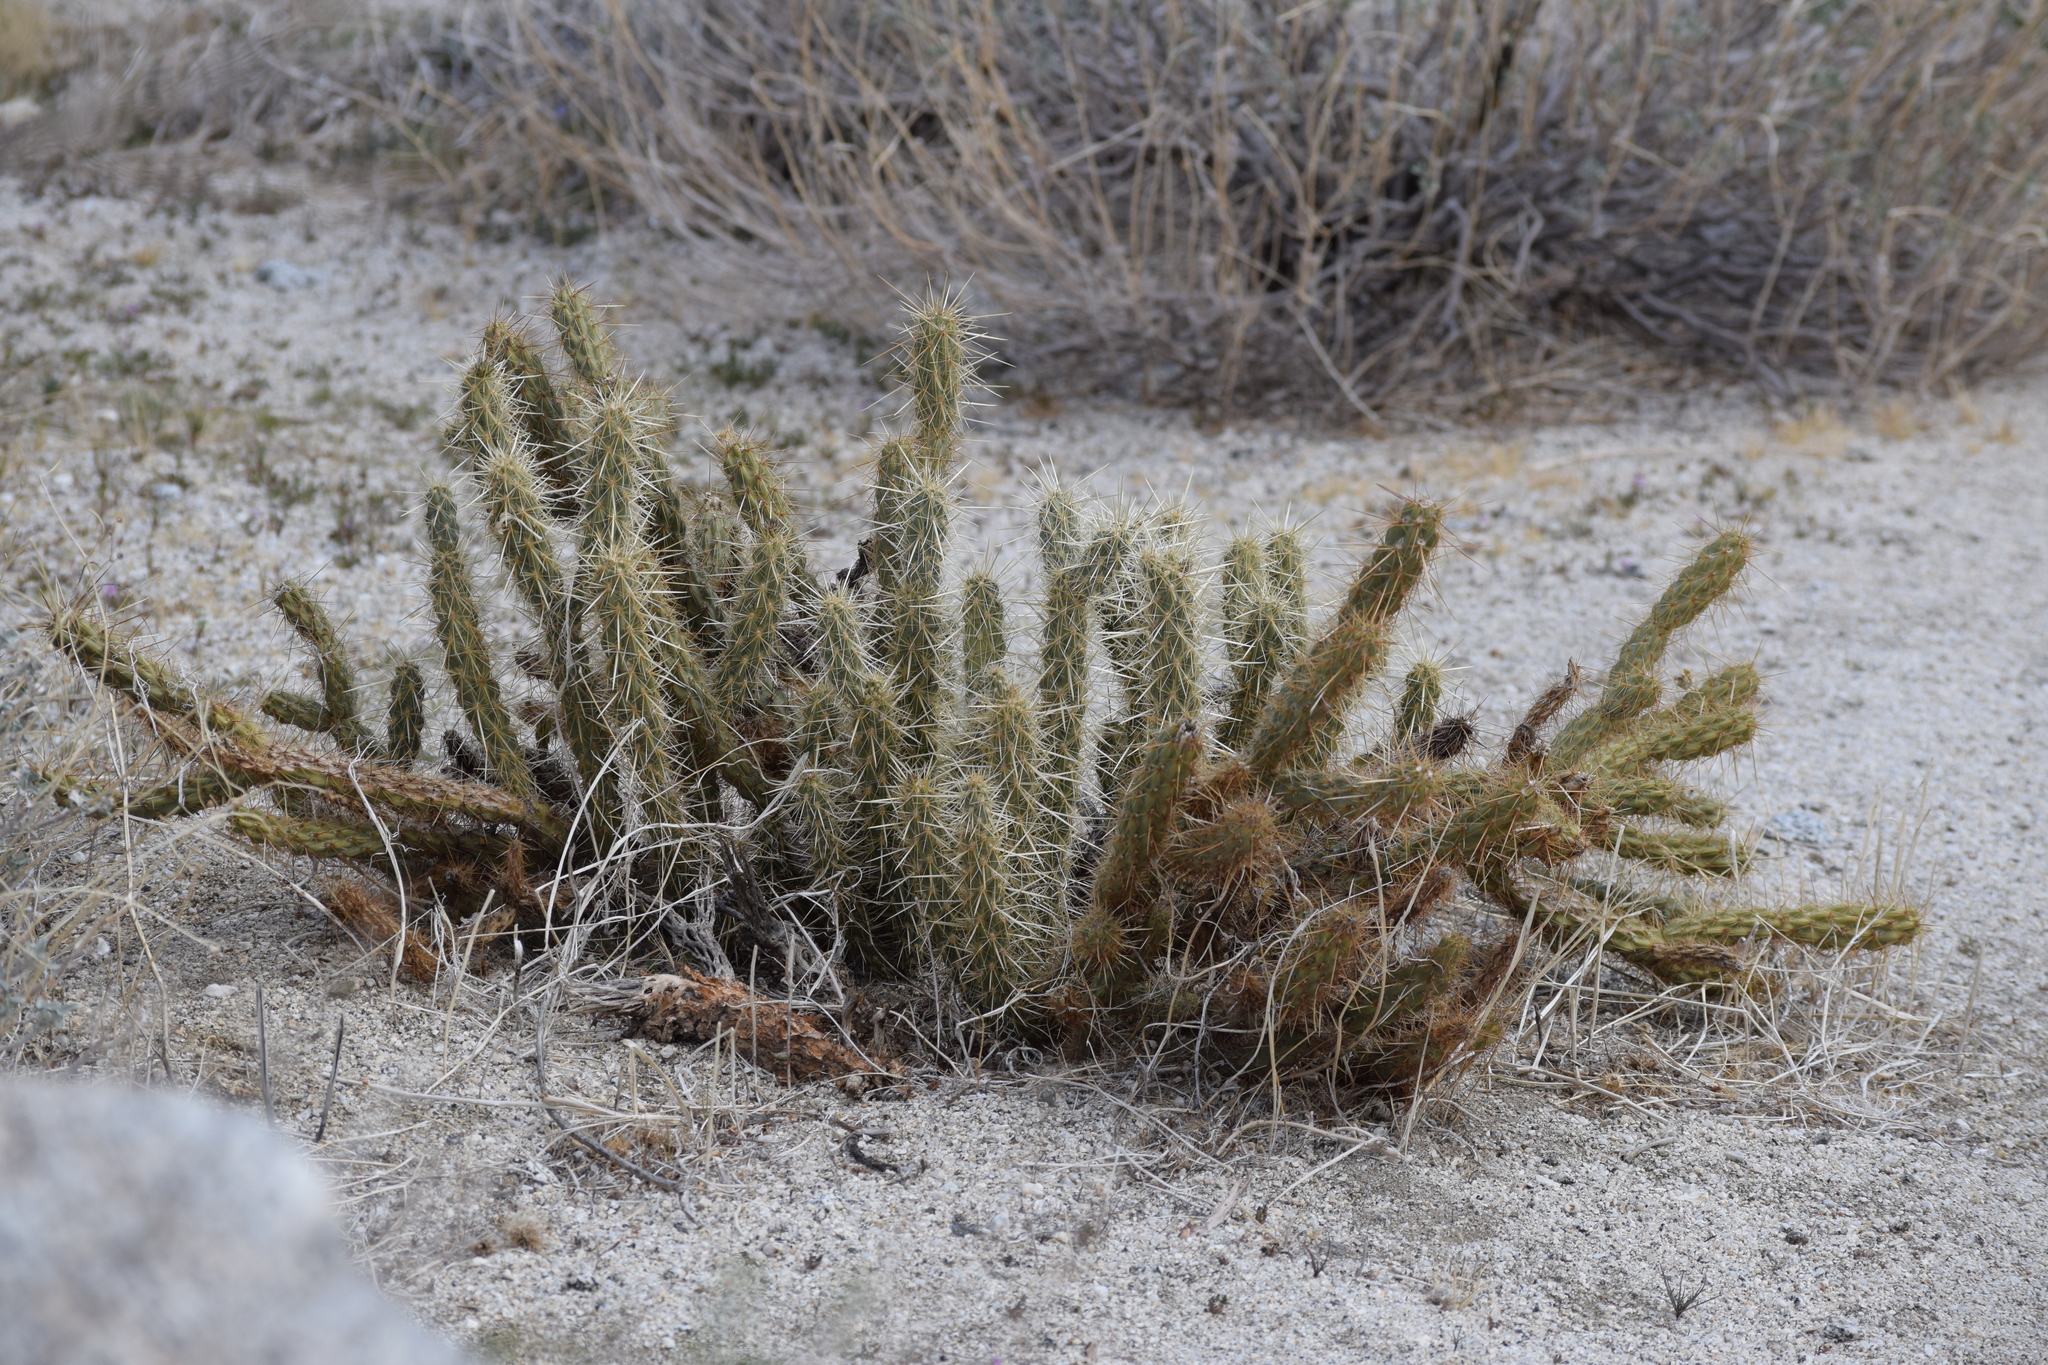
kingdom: Plantae
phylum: Tracheophyta
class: Magnoliopsida
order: Caryophyllales
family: Cactaceae
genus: Cylindropuntia
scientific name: Cylindropuntia ganderi
